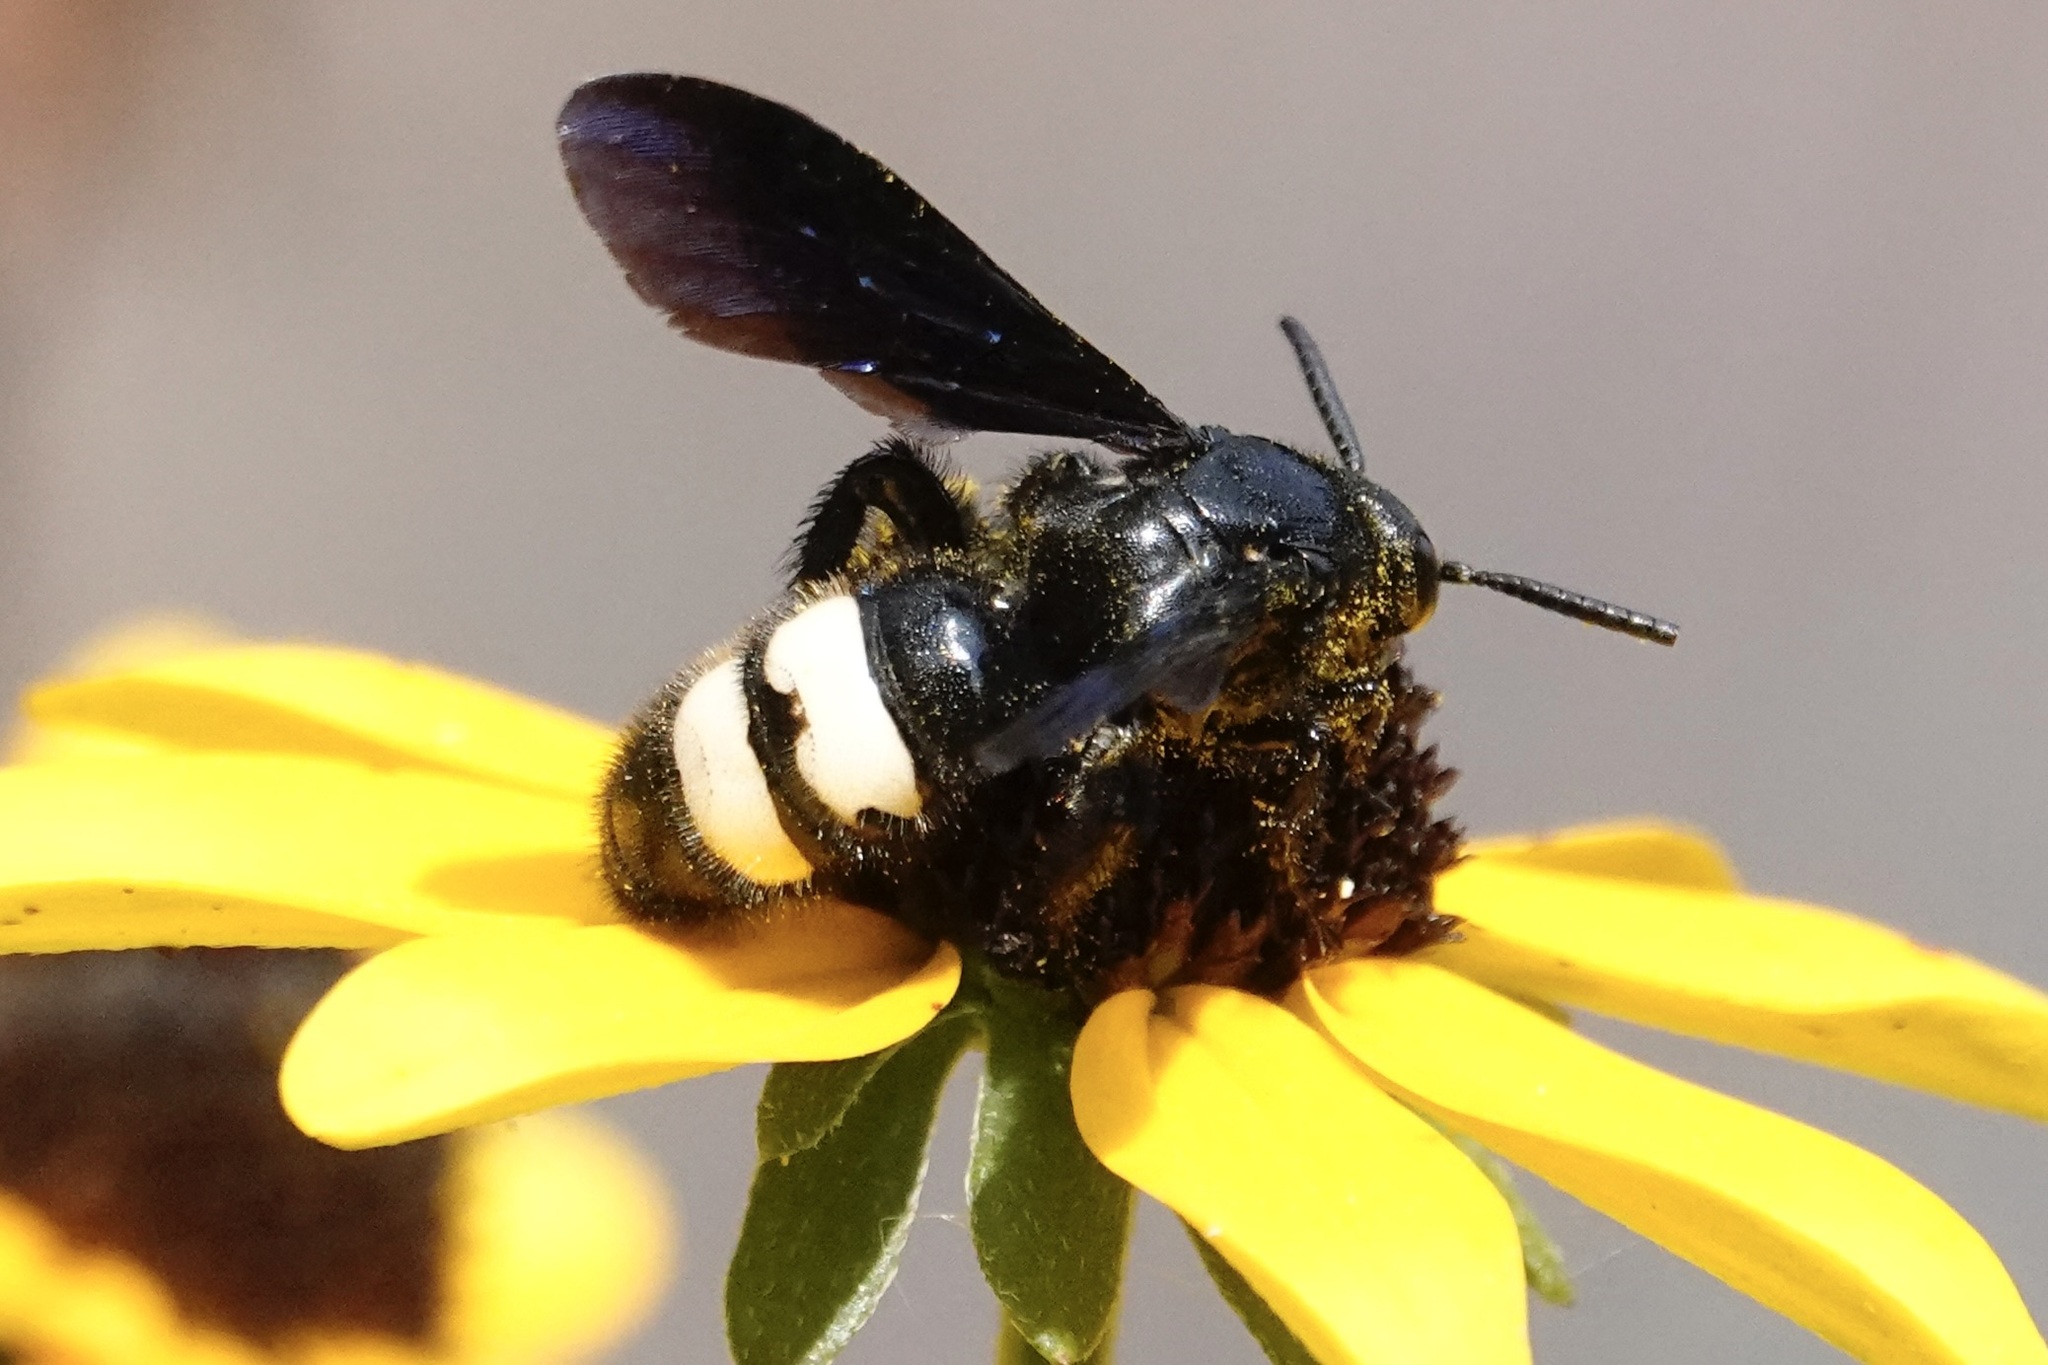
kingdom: Animalia
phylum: Arthropoda
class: Insecta
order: Hymenoptera
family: Scoliidae
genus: Scolia
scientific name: Scolia bicincta
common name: Double-banded scoliid wasp
